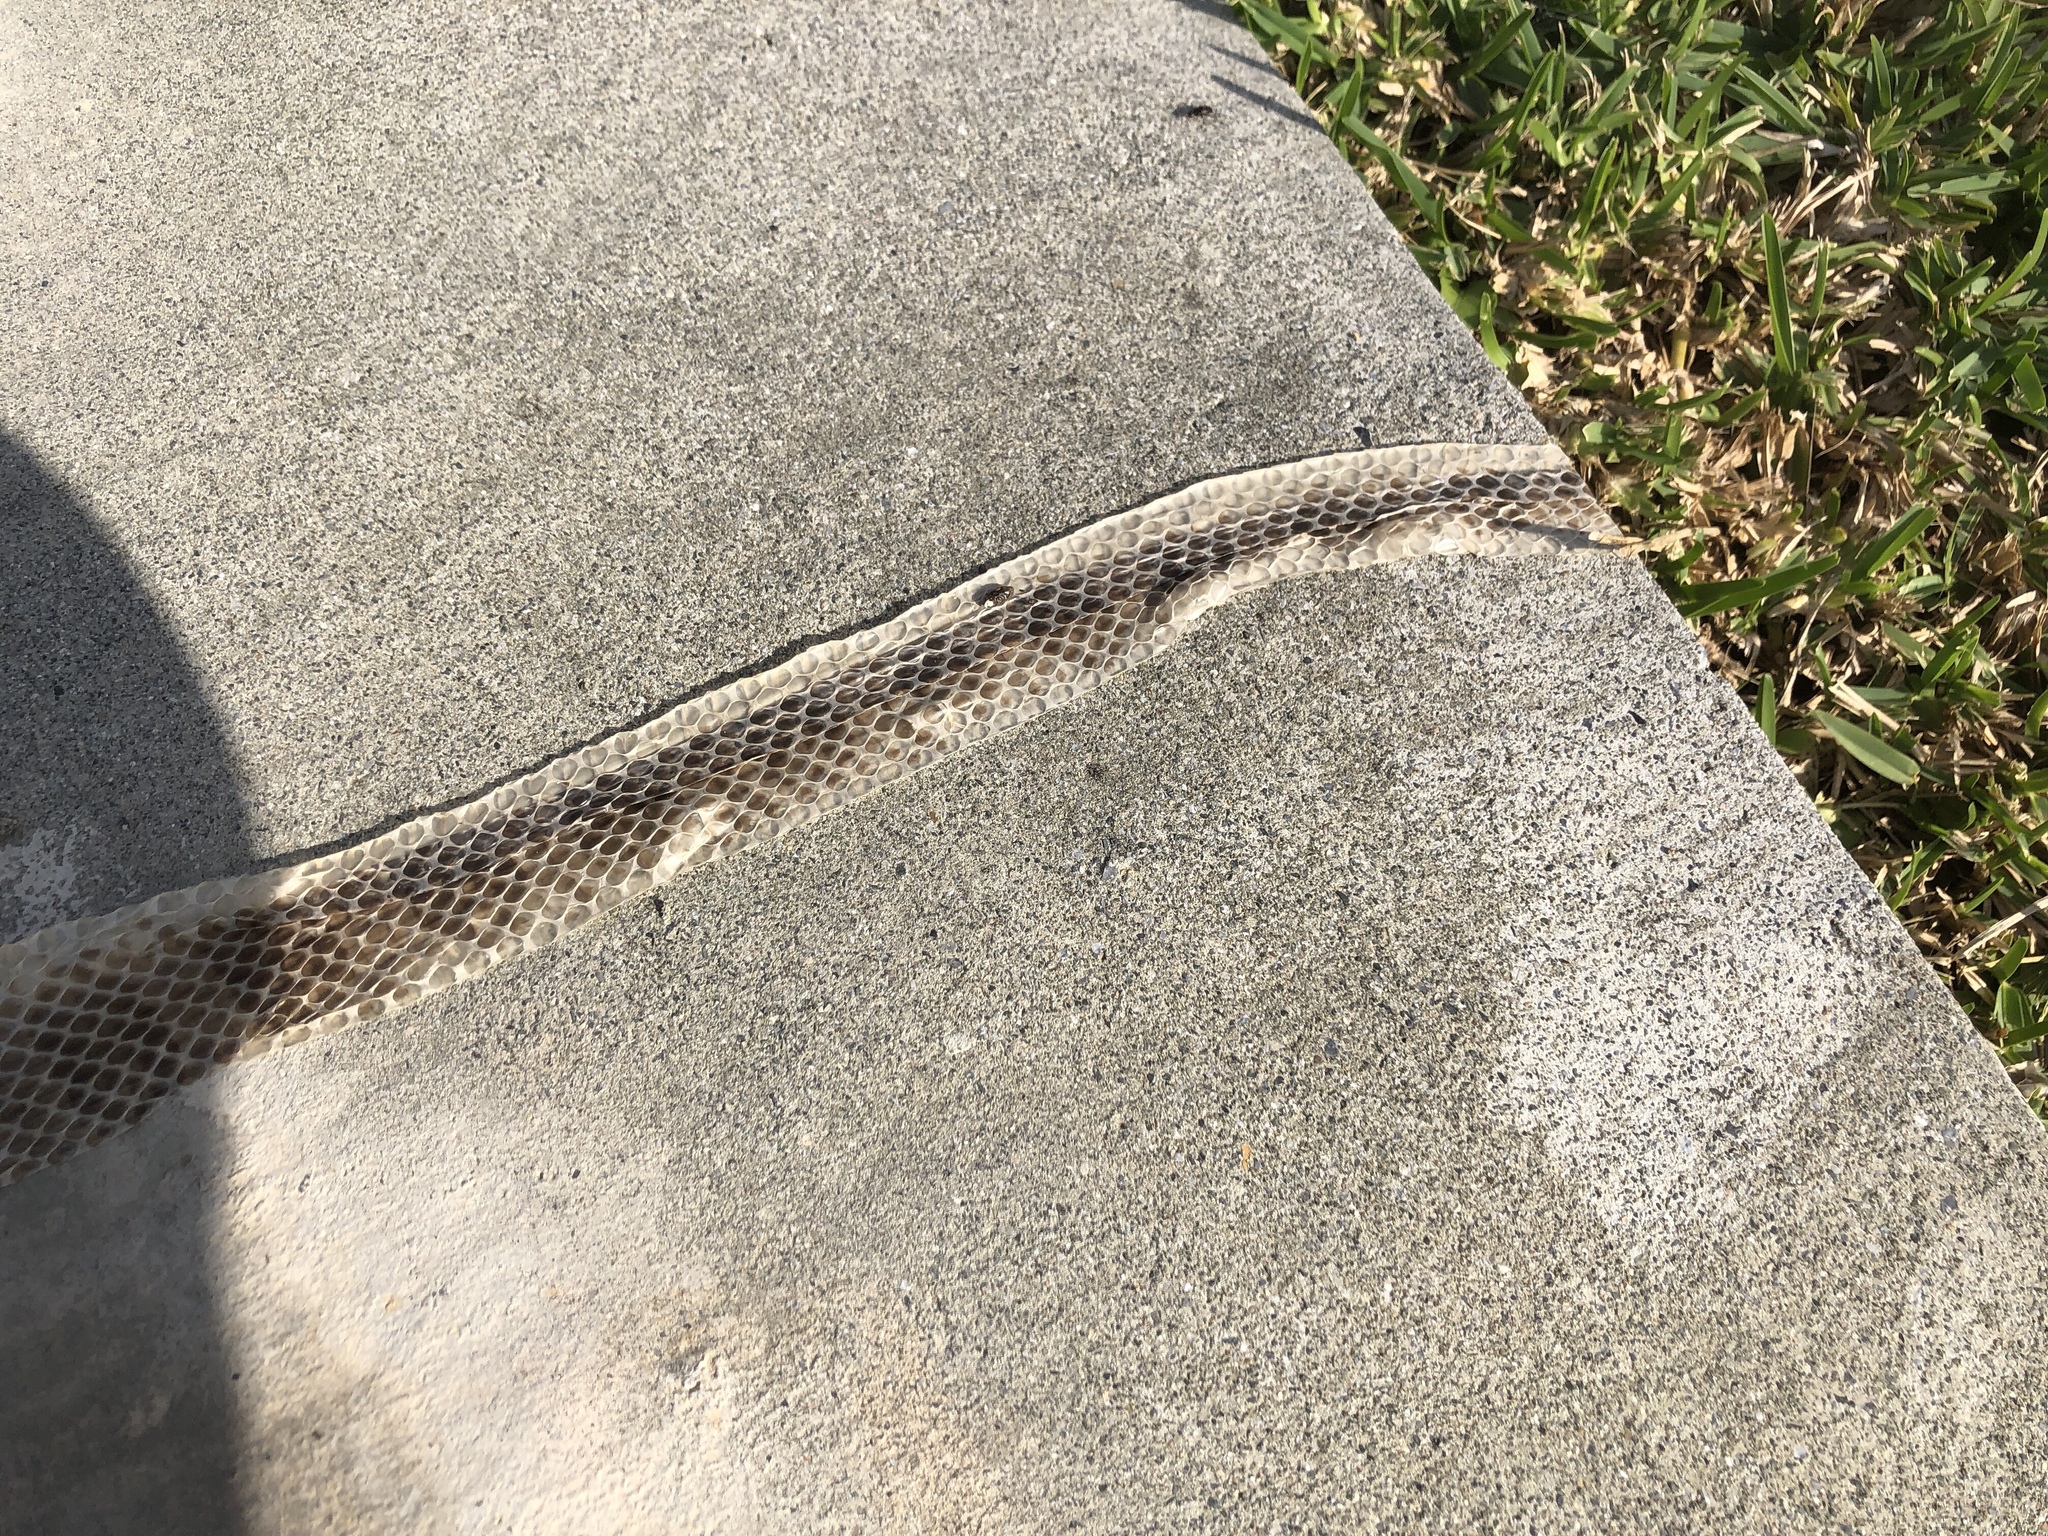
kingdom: Animalia
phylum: Chordata
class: Squamata
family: Colubridae
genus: Lycodon
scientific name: Lycodon semicarinatus
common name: Loo-choo big-tooth snake
